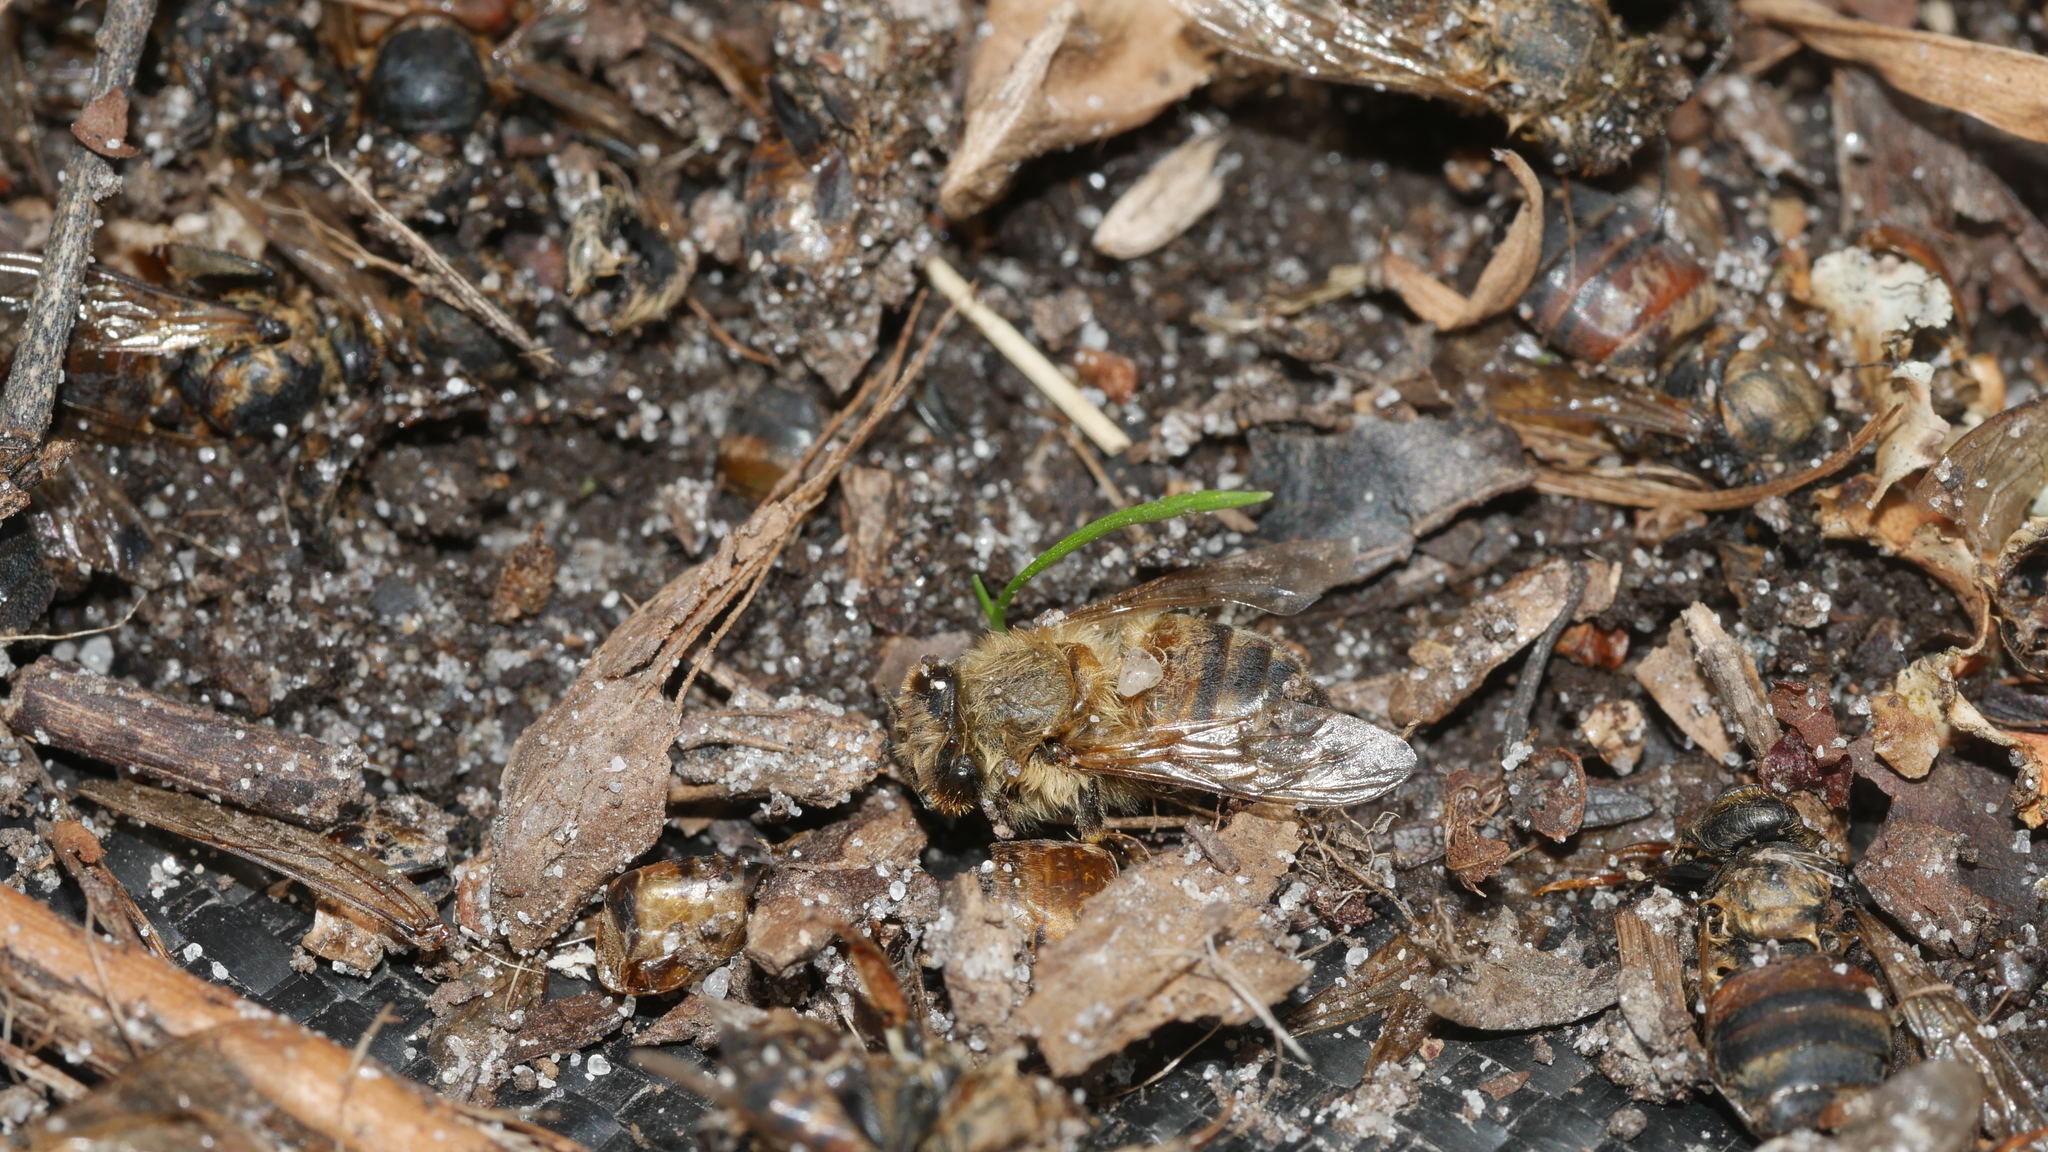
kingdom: Animalia
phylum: Arthropoda
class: Insecta
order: Hymenoptera
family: Apidae
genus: Apis
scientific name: Apis mellifera
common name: Honey bee
